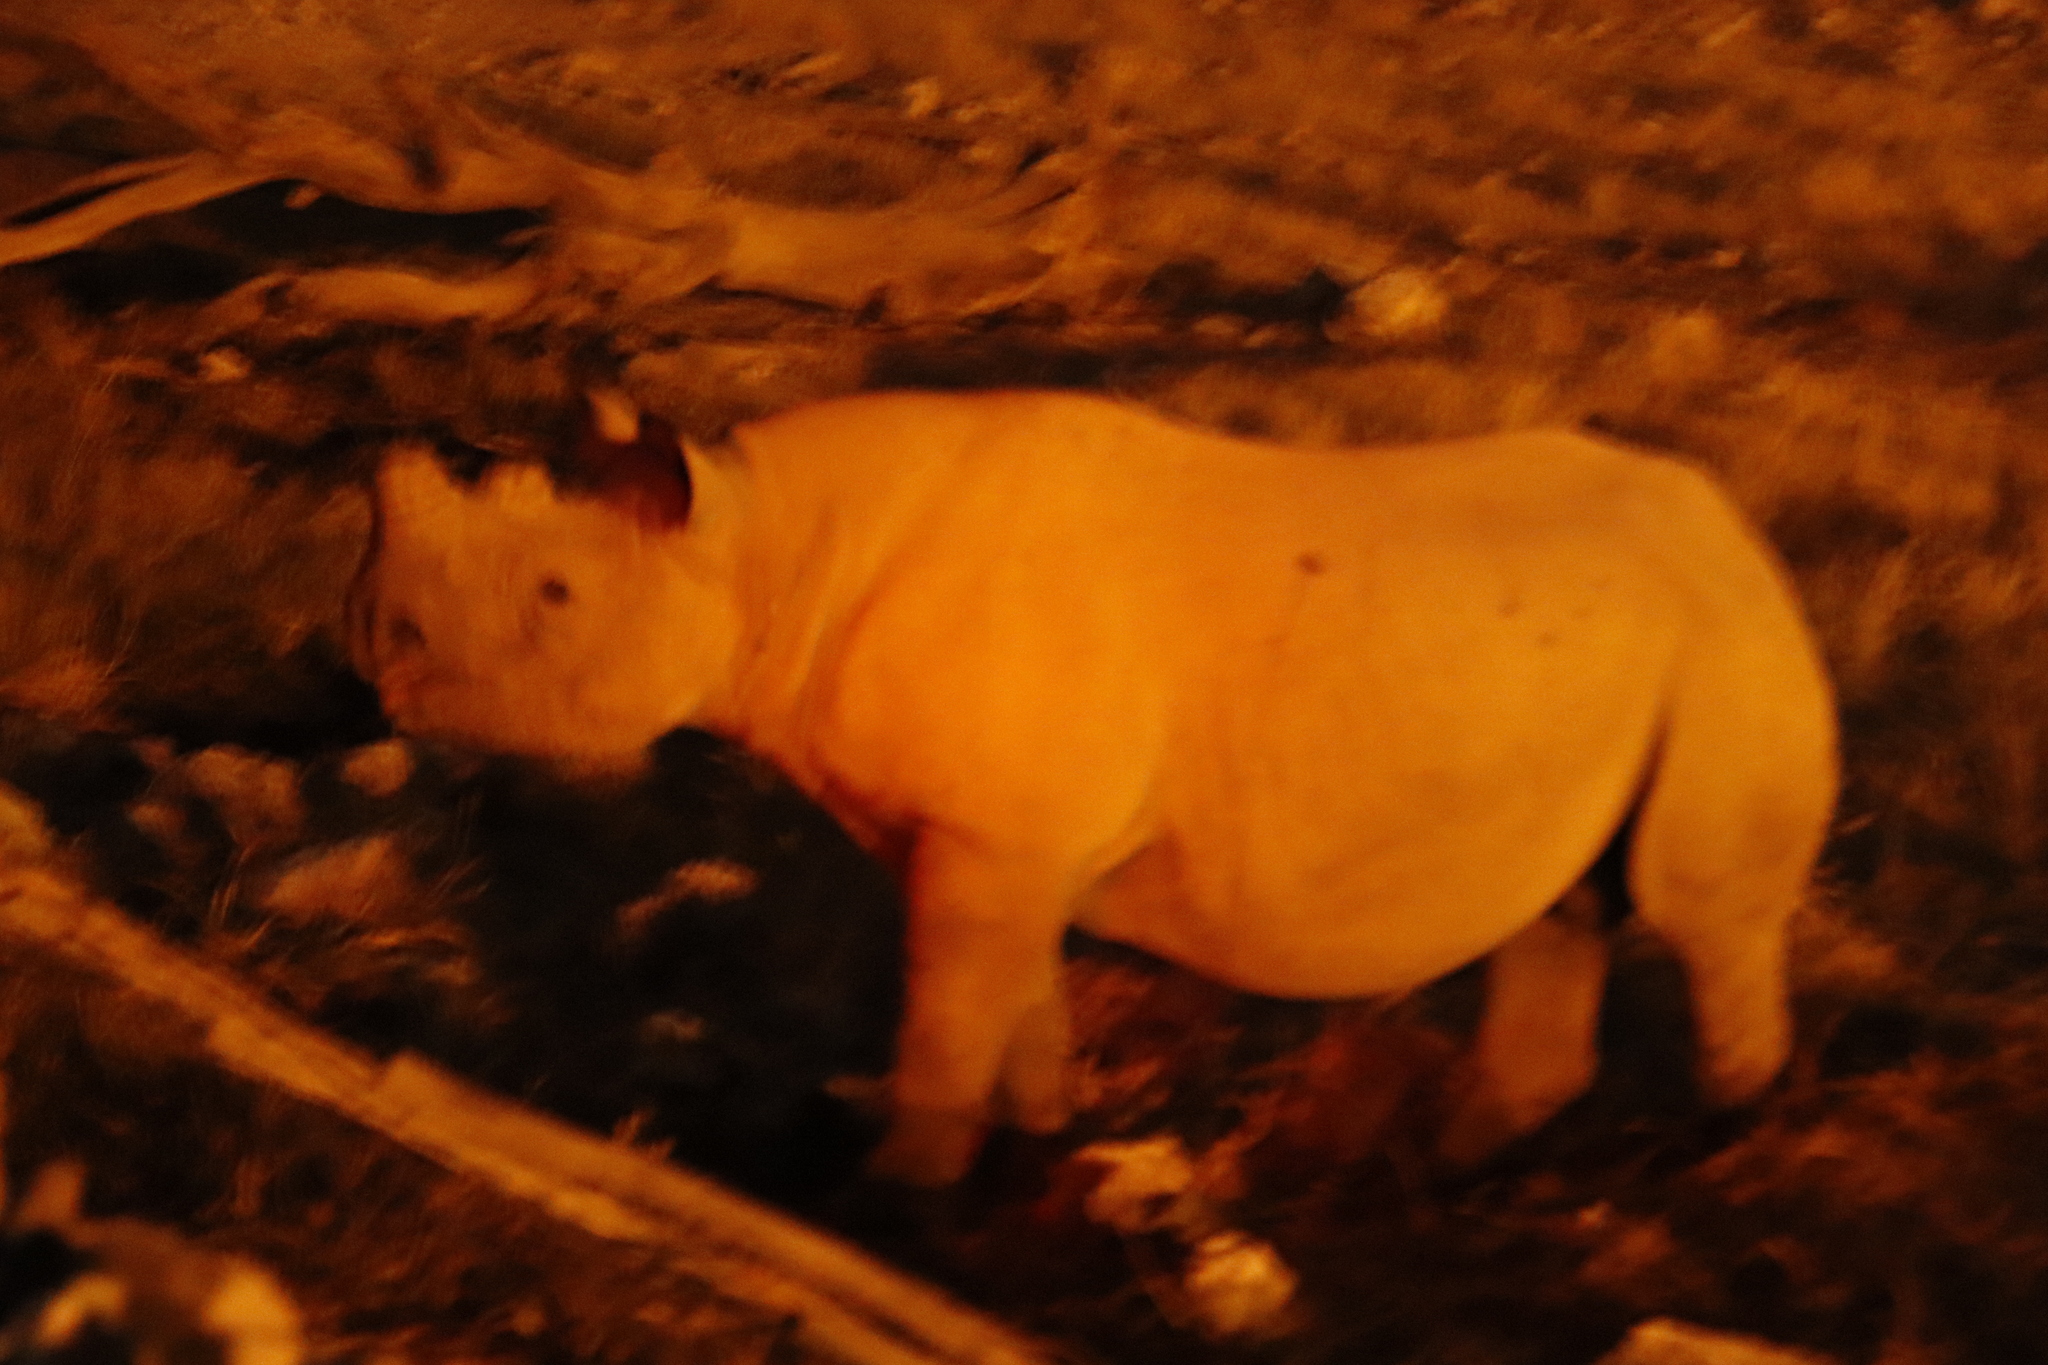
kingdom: Animalia
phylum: Chordata
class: Mammalia
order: Perissodactyla
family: Rhinocerotidae
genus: Diceros
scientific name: Diceros bicornis
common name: Black rhinoceros
